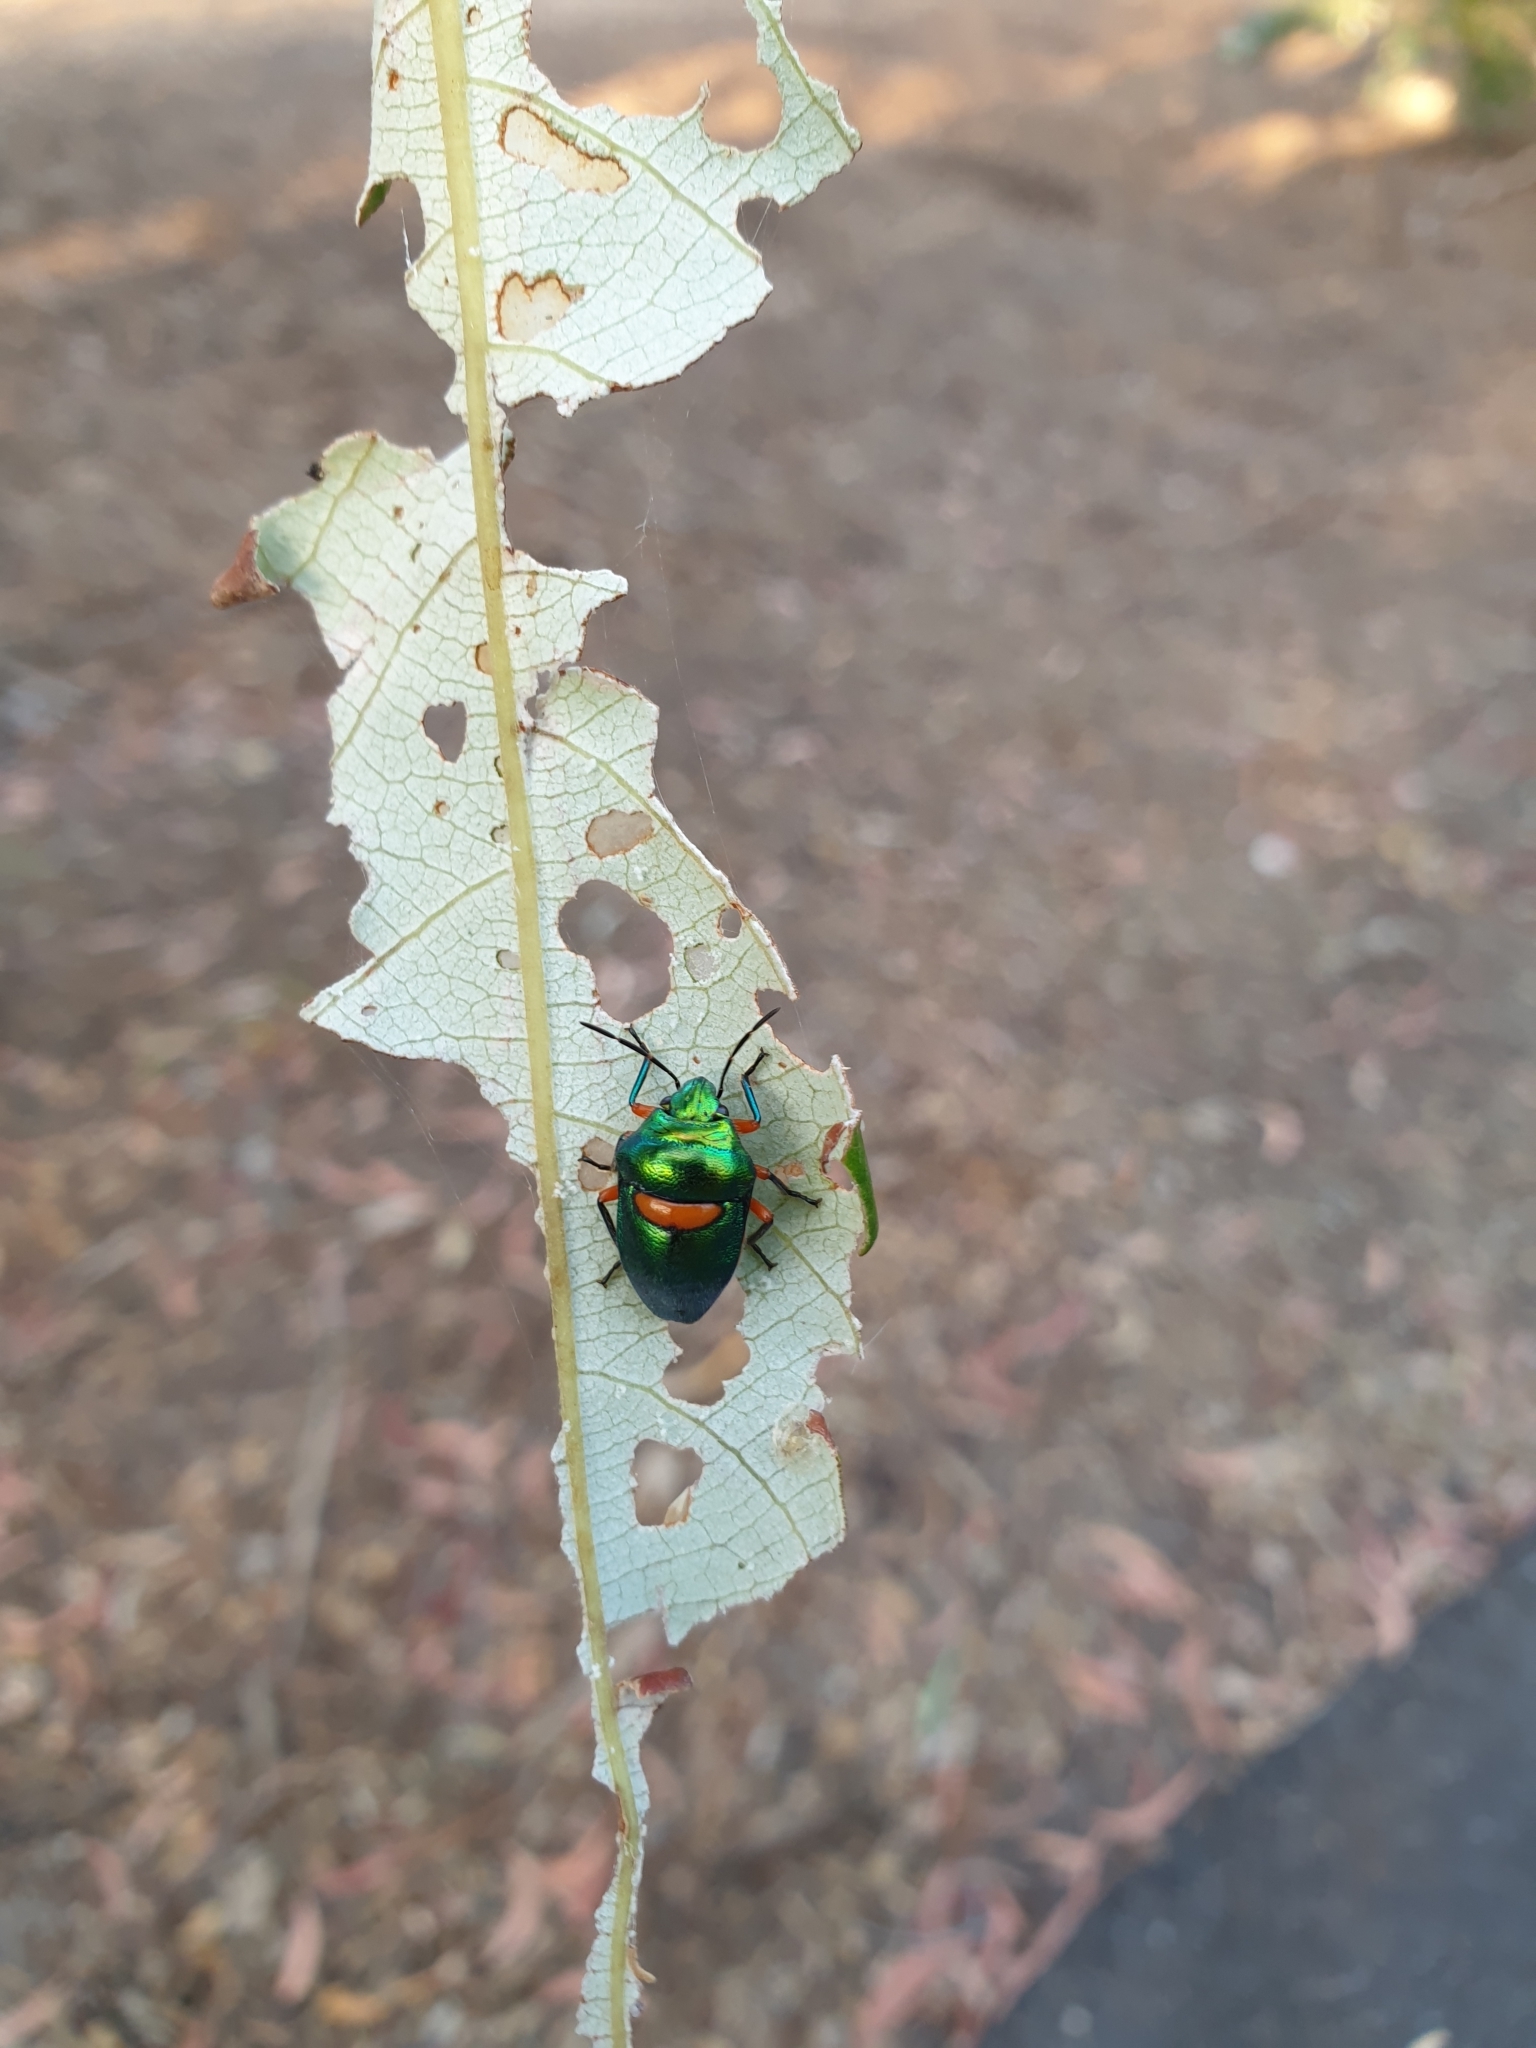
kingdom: Animalia
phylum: Arthropoda
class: Insecta
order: Hemiptera
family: Scutelleridae
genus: Lampromicra
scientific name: Lampromicra senator
